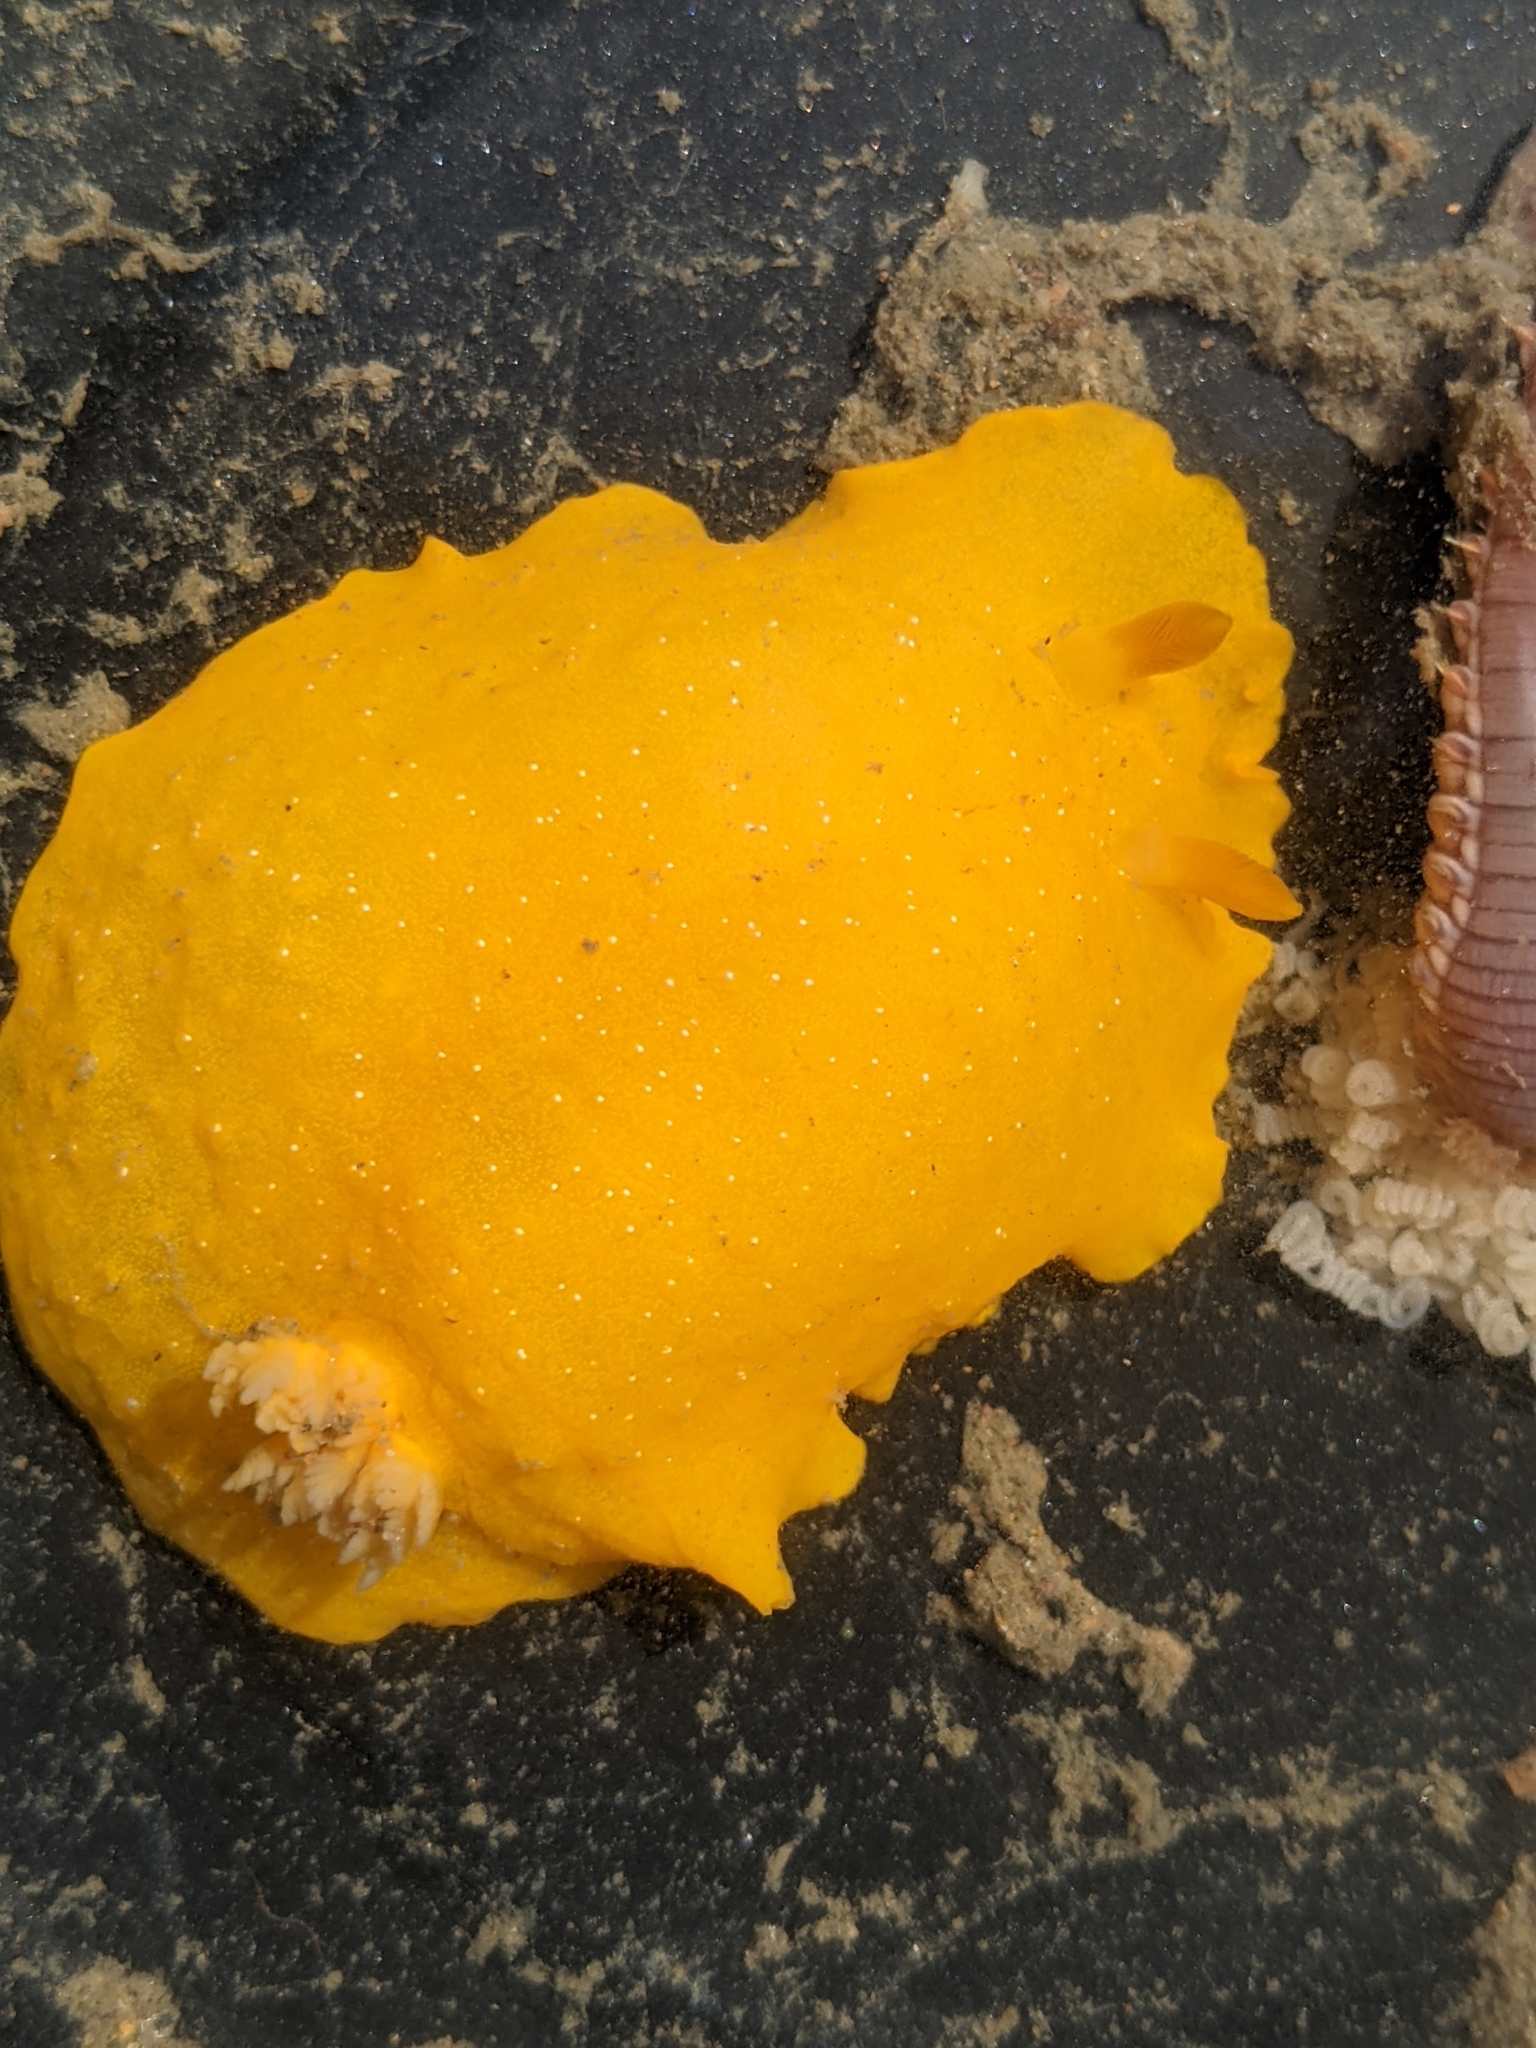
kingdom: Animalia
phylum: Mollusca
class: Gastropoda
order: Nudibranchia
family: Dendrodorididae
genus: Doriopsilla
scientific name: Doriopsilla fulva
